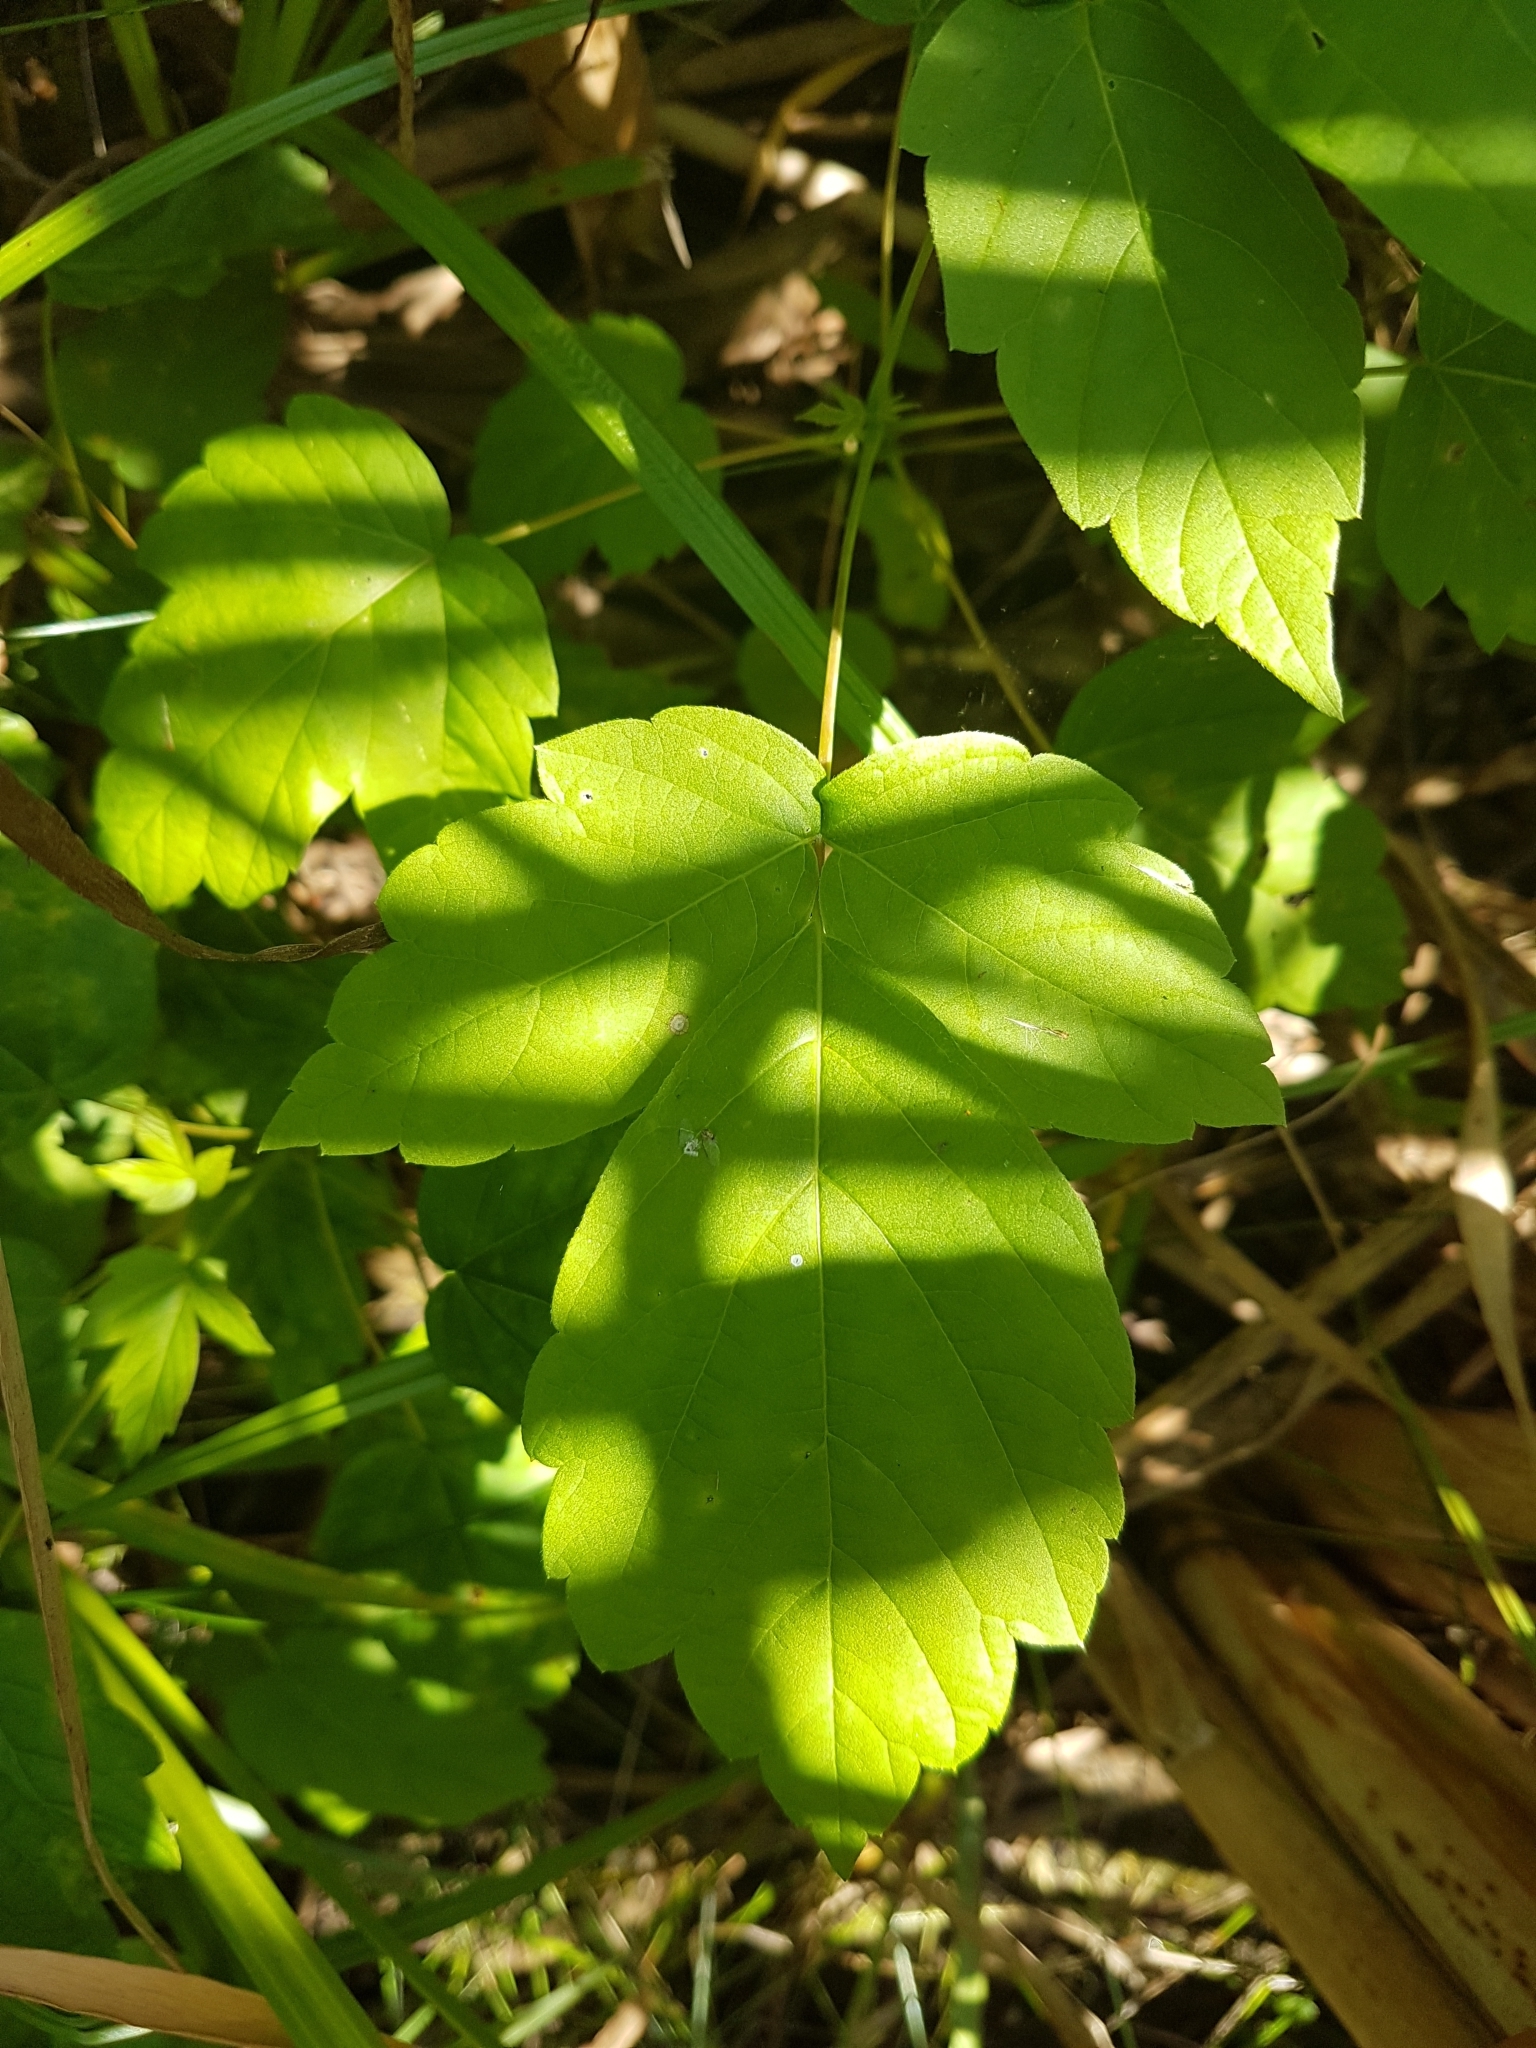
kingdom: Plantae
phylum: Tracheophyta
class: Magnoliopsida
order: Sapindales
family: Sapindaceae
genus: Acer
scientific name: Acer negundo
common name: Ashleaf maple
